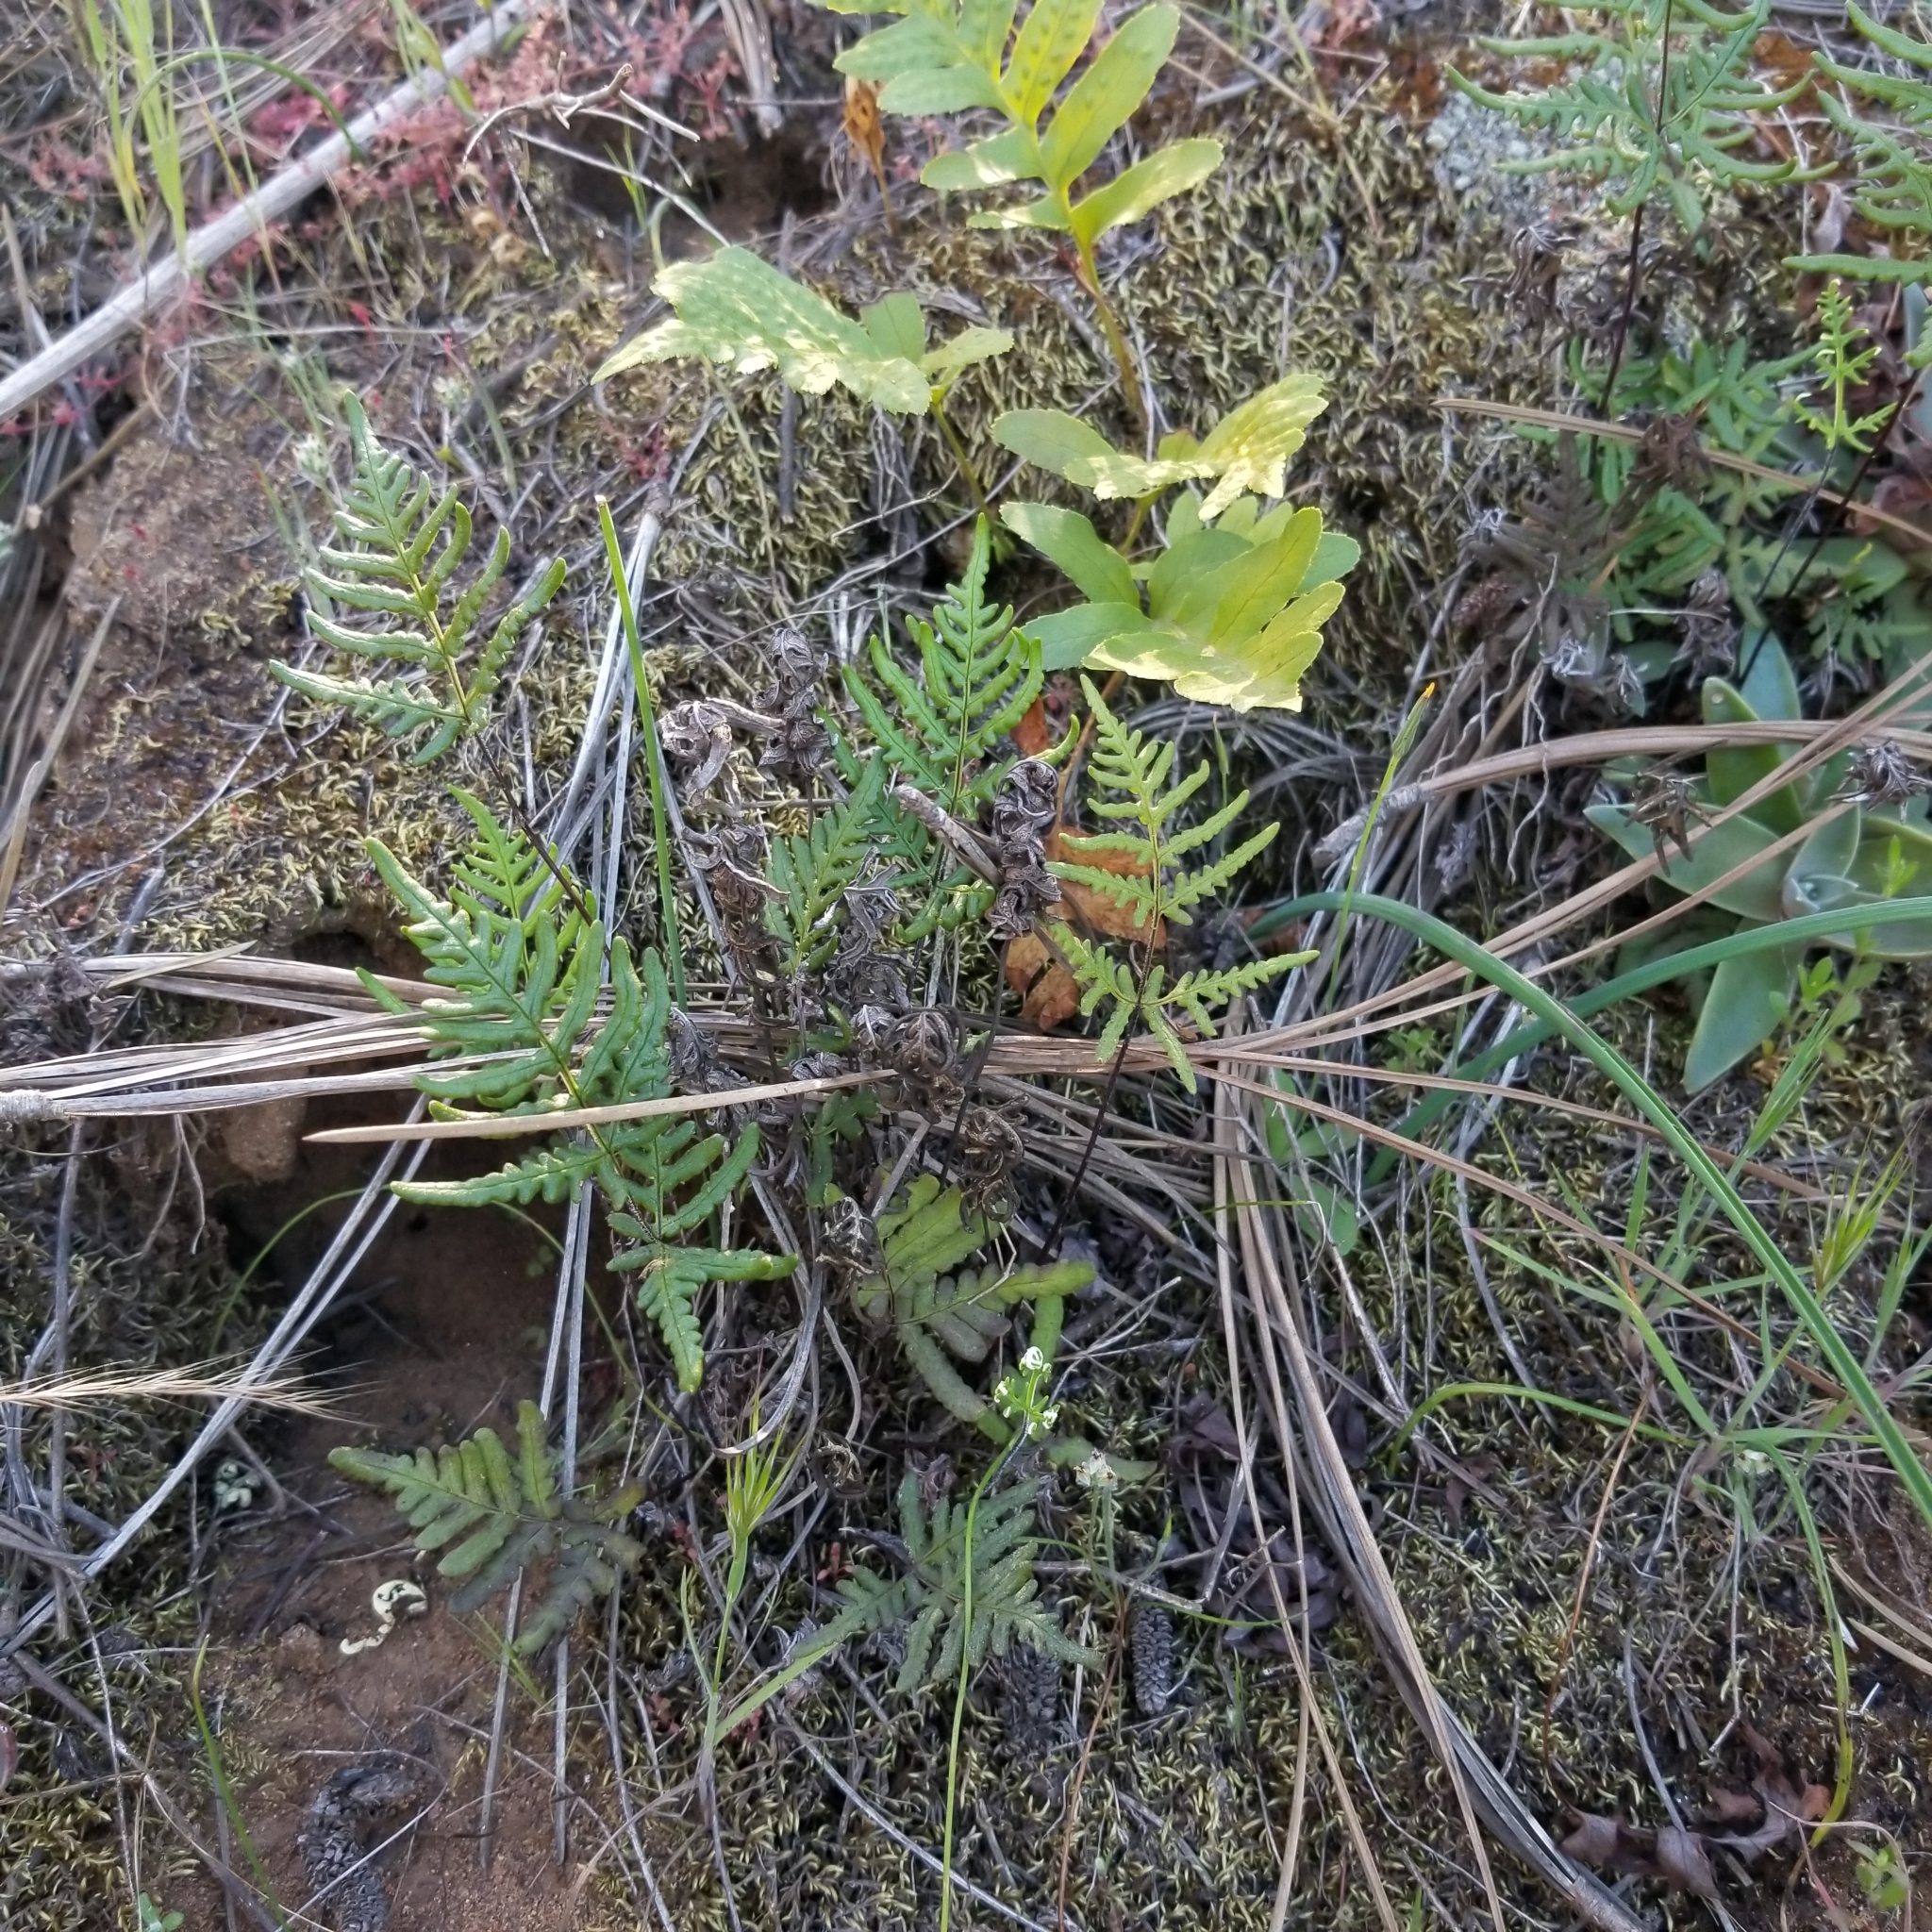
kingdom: Plantae
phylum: Tracheophyta
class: Polypodiopsida
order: Polypodiales
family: Pteridaceae
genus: Pentagramma
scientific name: Pentagramma viscosa
